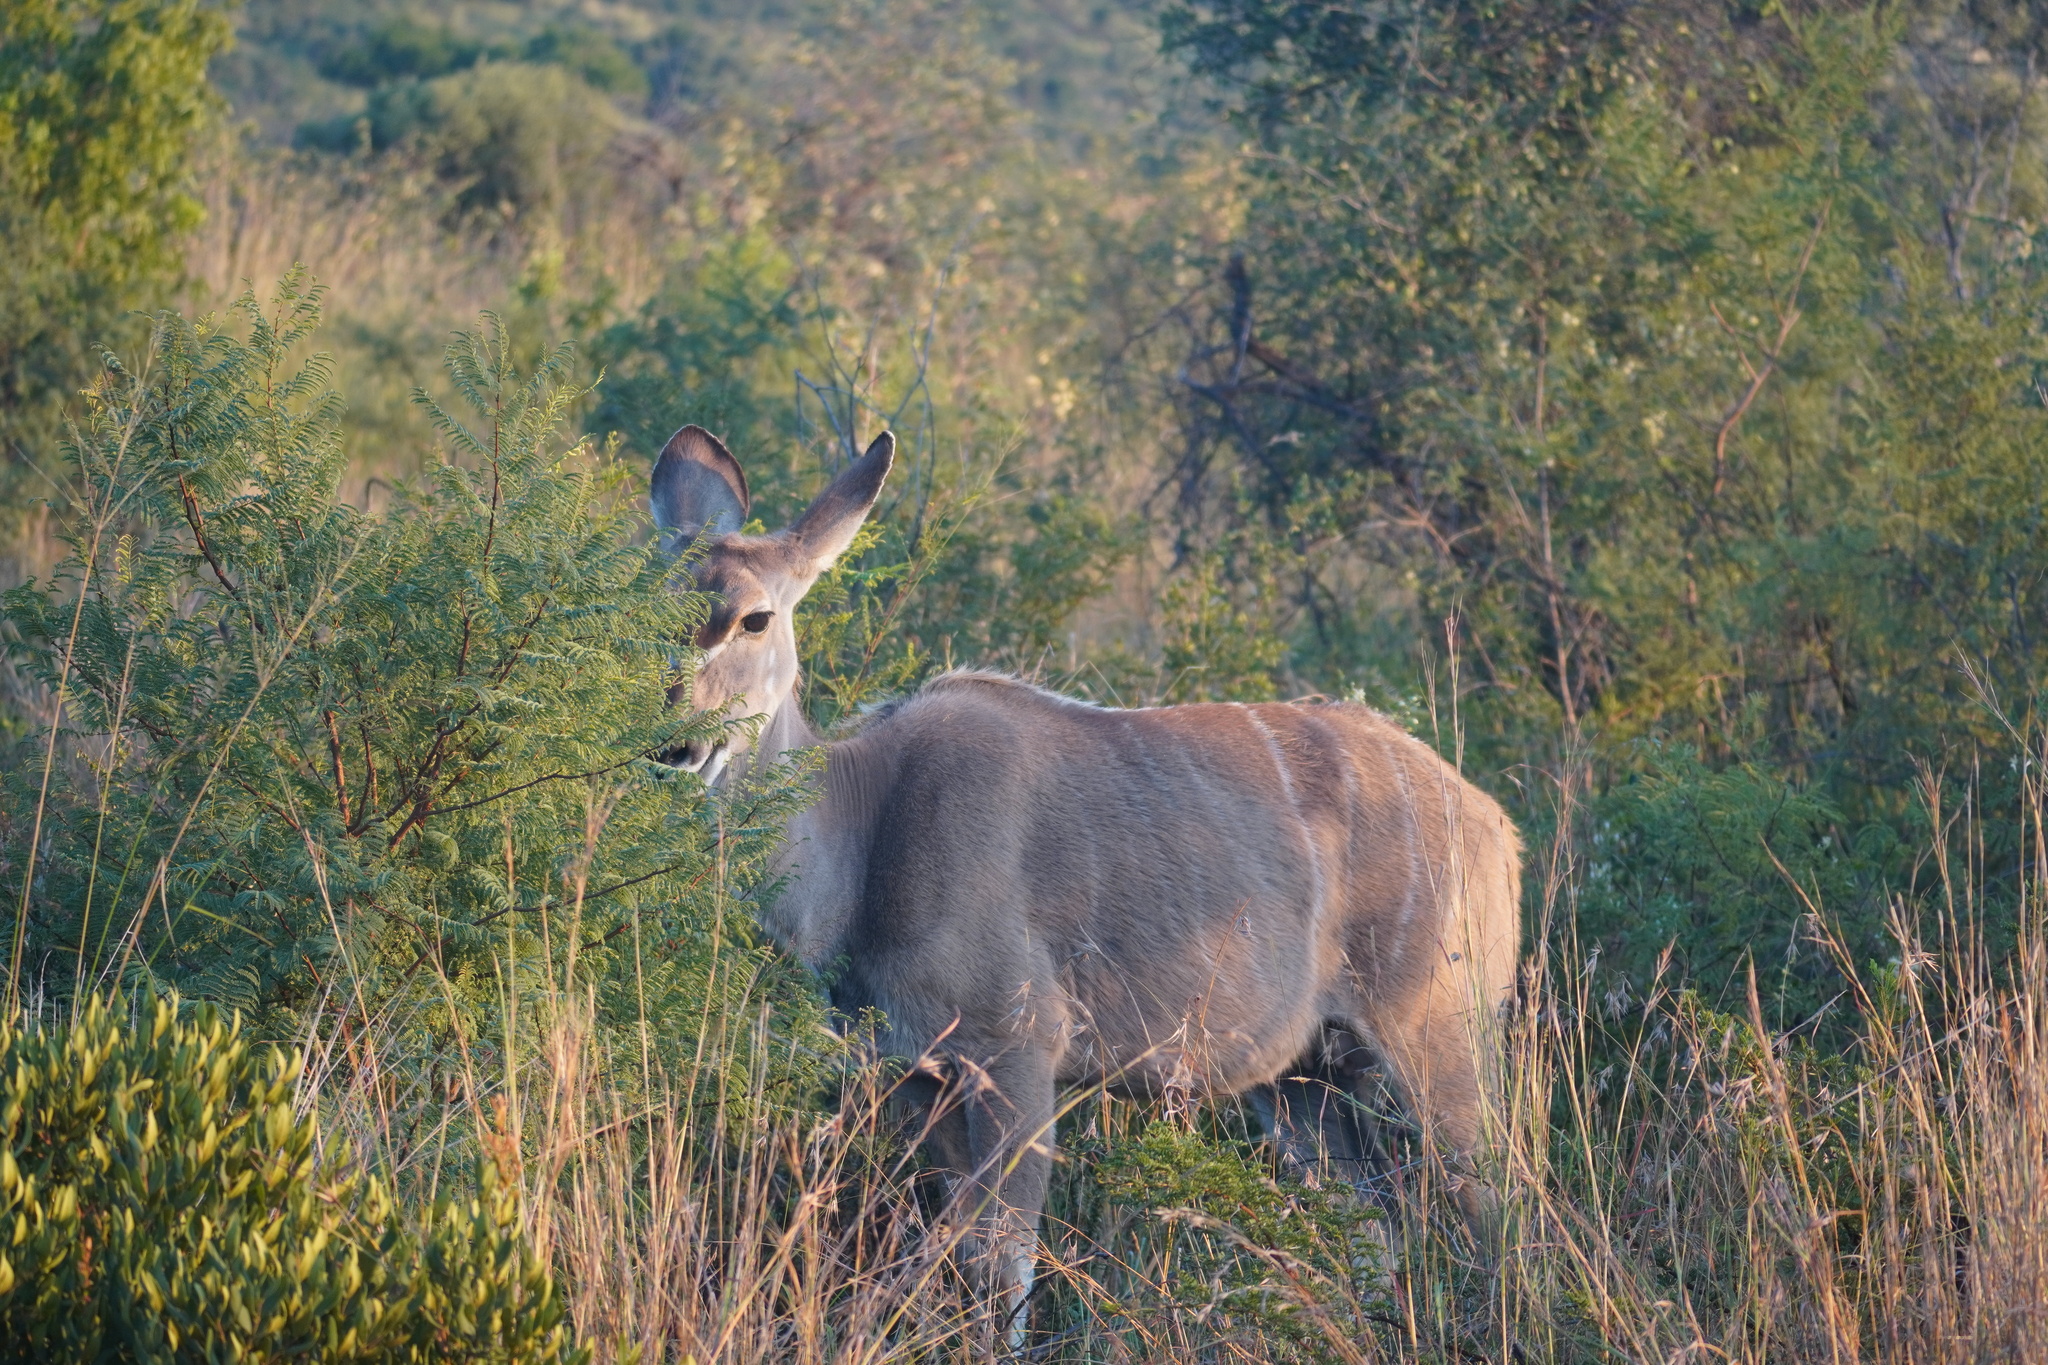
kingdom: Animalia
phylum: Chordata
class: Mammalia
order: Artiodactyla
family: Bovidae
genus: Tragelaphus
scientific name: Tragelaphus strepsiceros
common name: Greater kudu
